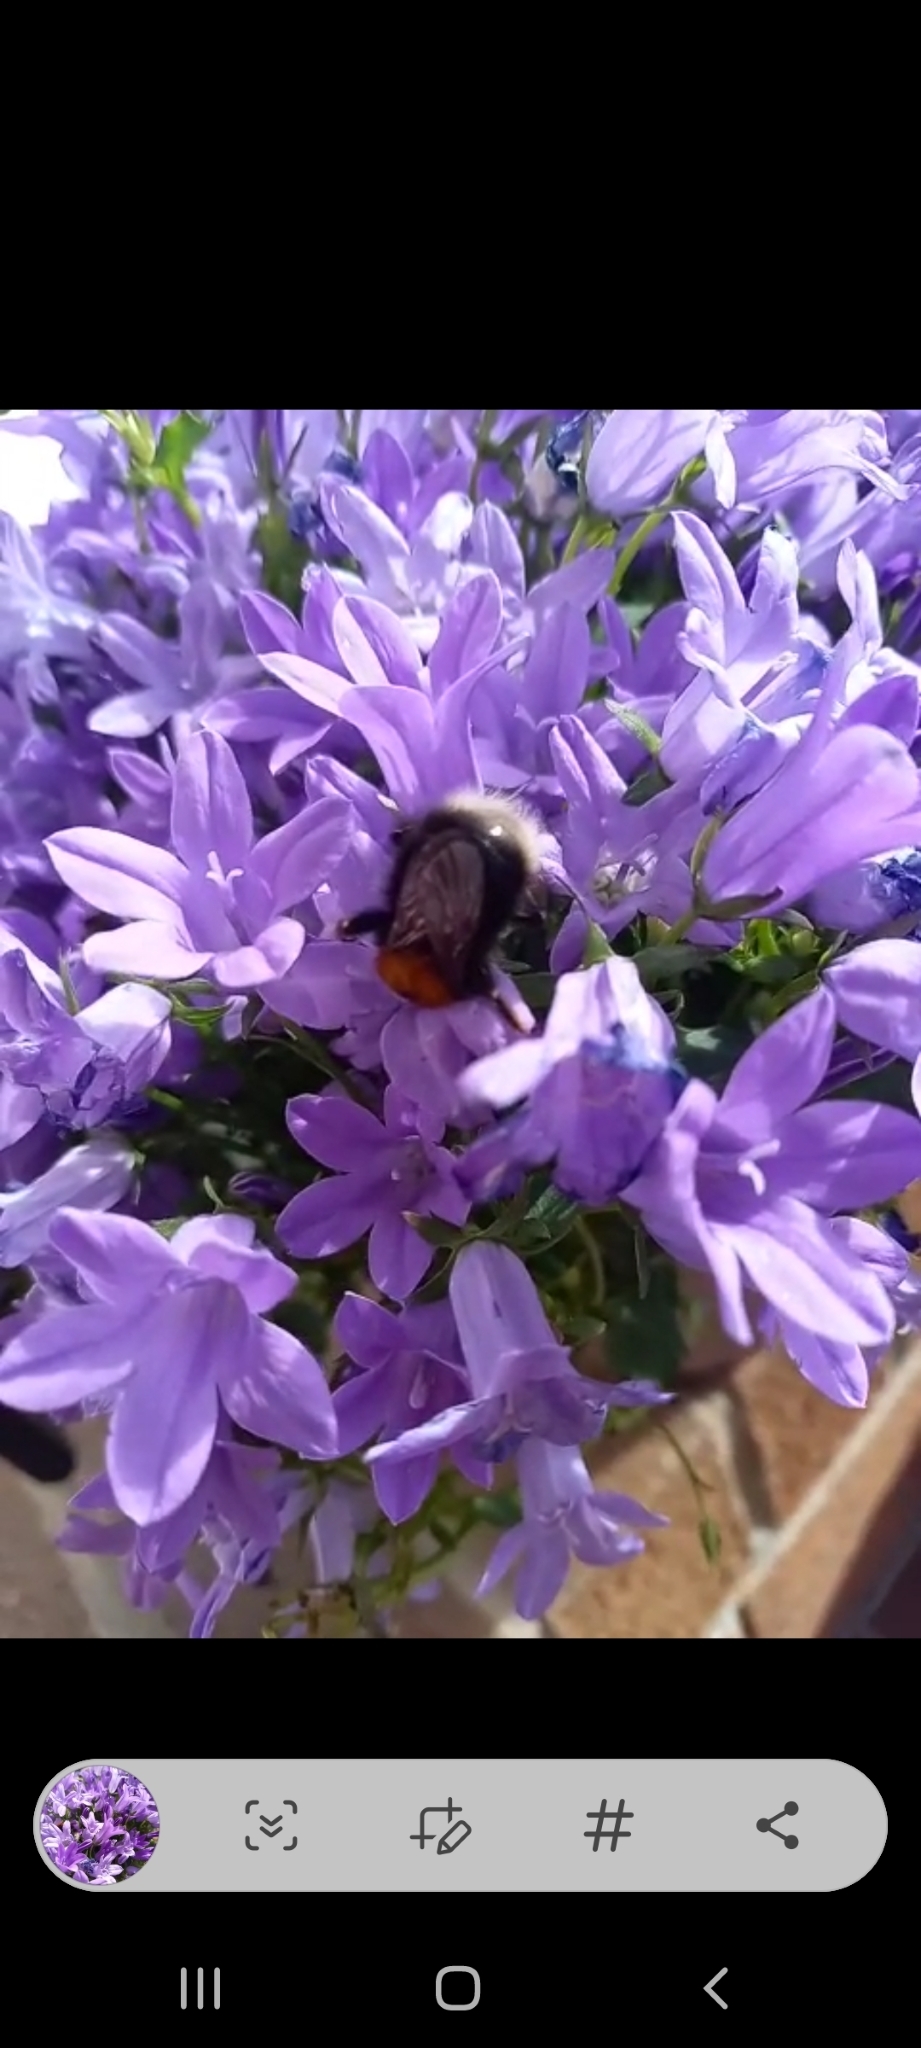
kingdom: Animalia
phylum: Arthropoda
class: Insecta
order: Hymenoptera
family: Apidae
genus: Bombus
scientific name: Bombus hypnorum
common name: New garden bumblebee
